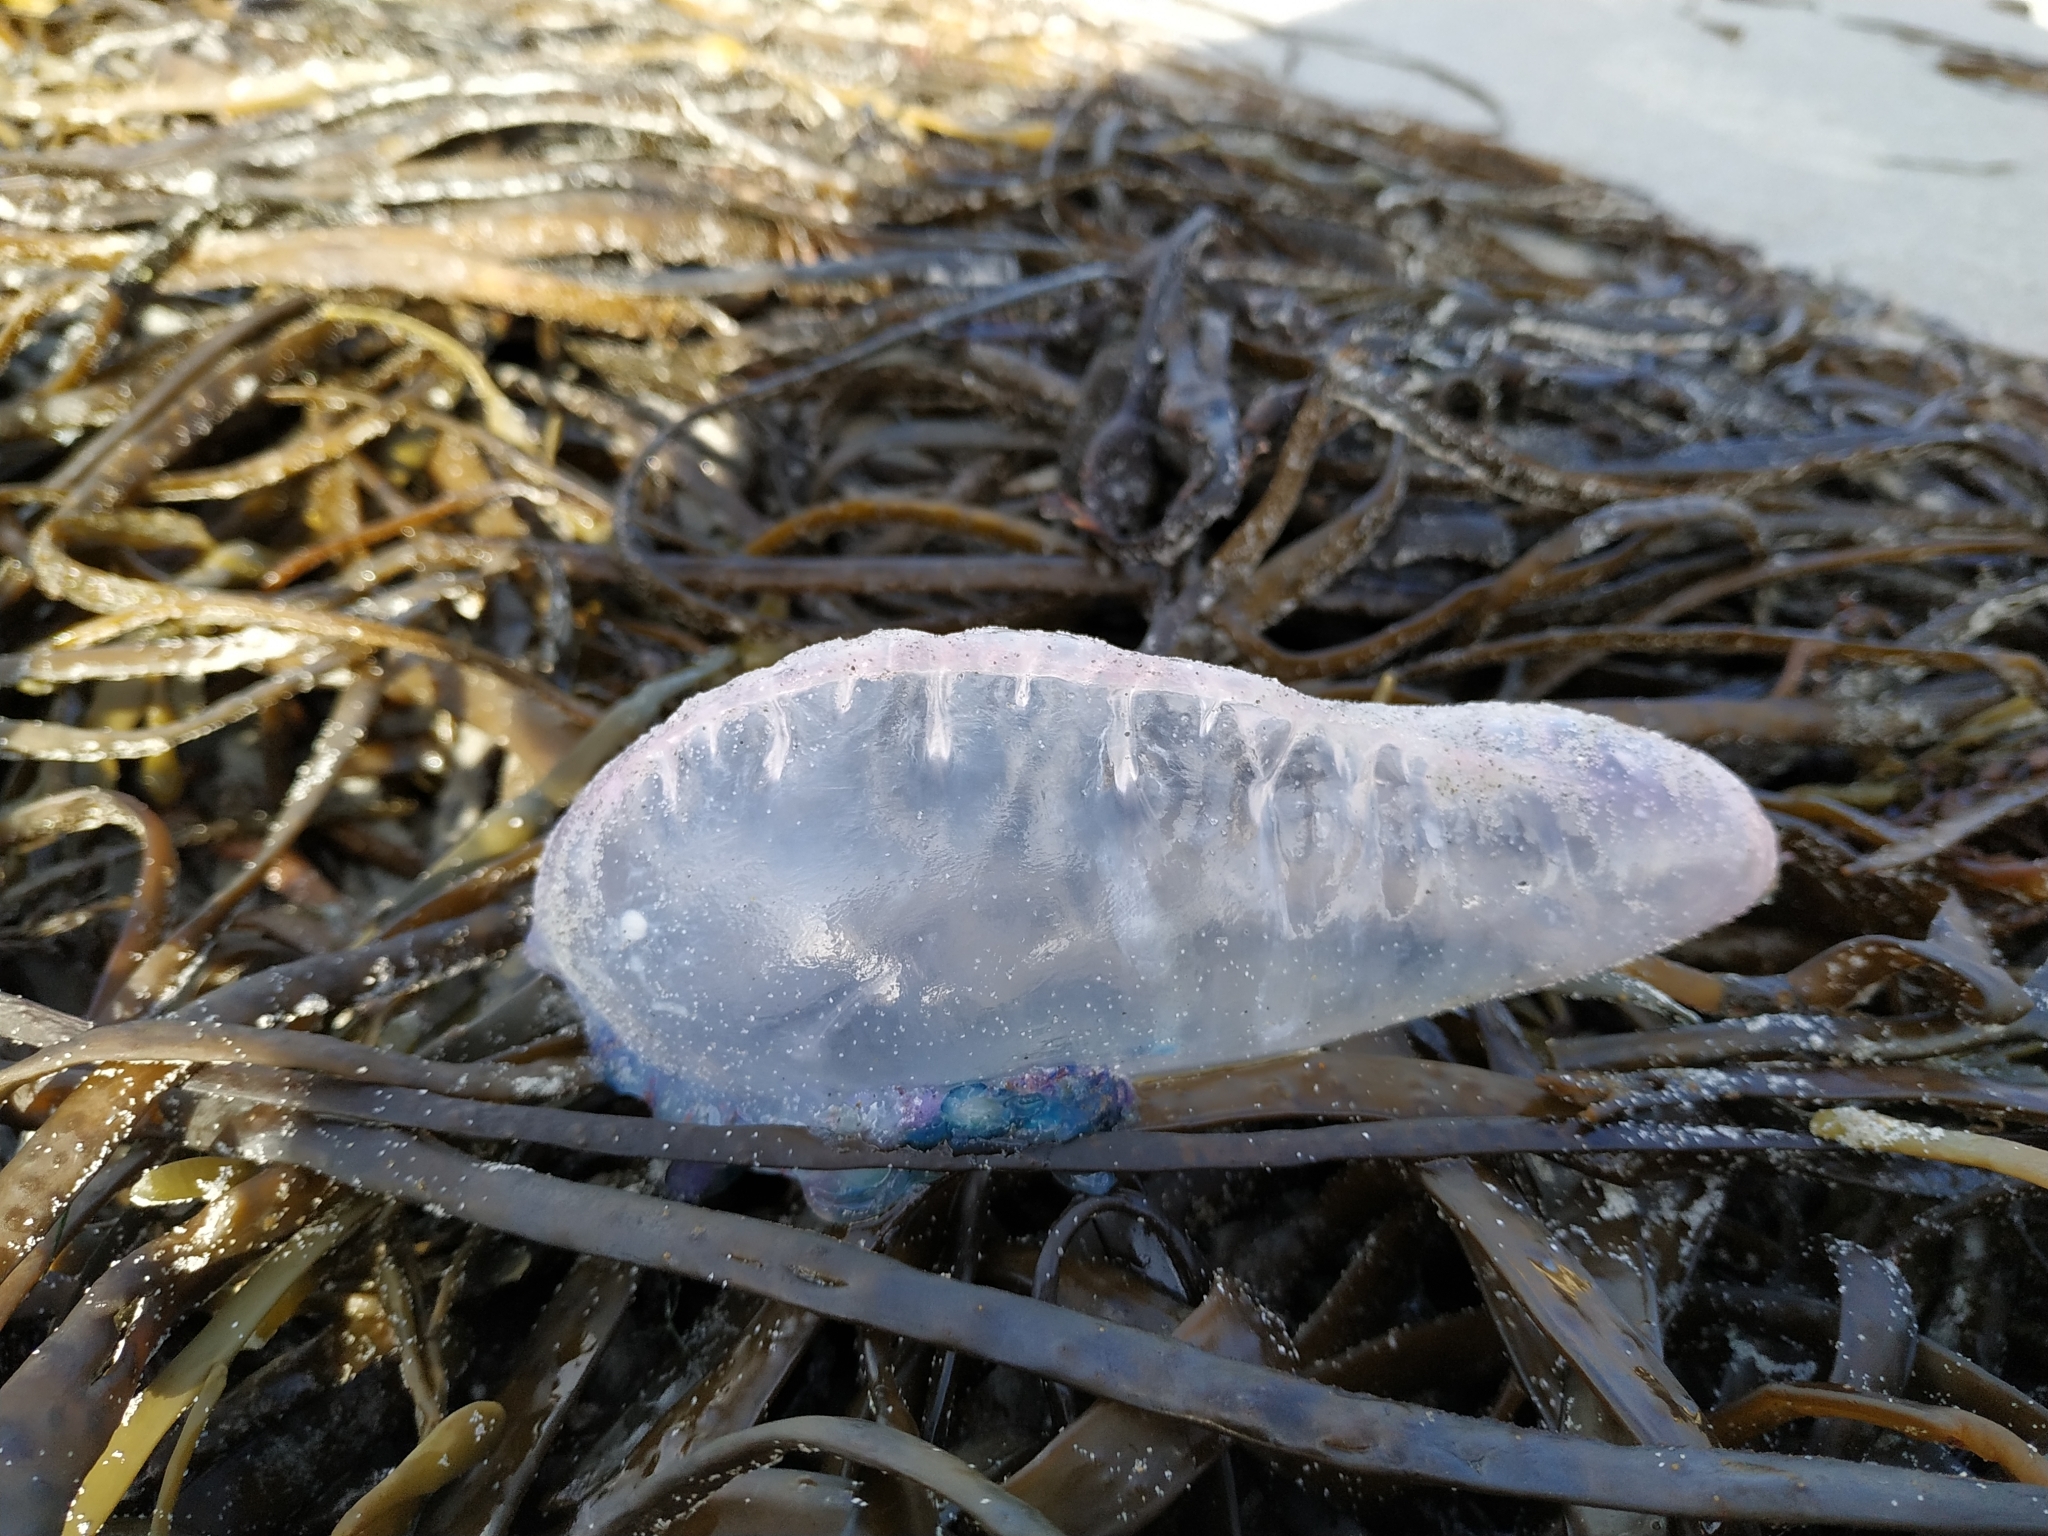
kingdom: Animalia
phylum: Cnidaria
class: Hydrozoa
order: Siphonophorae
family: Physaliidae
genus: Physalia
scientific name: Physalia physalis
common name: Portuguese man-of-war
